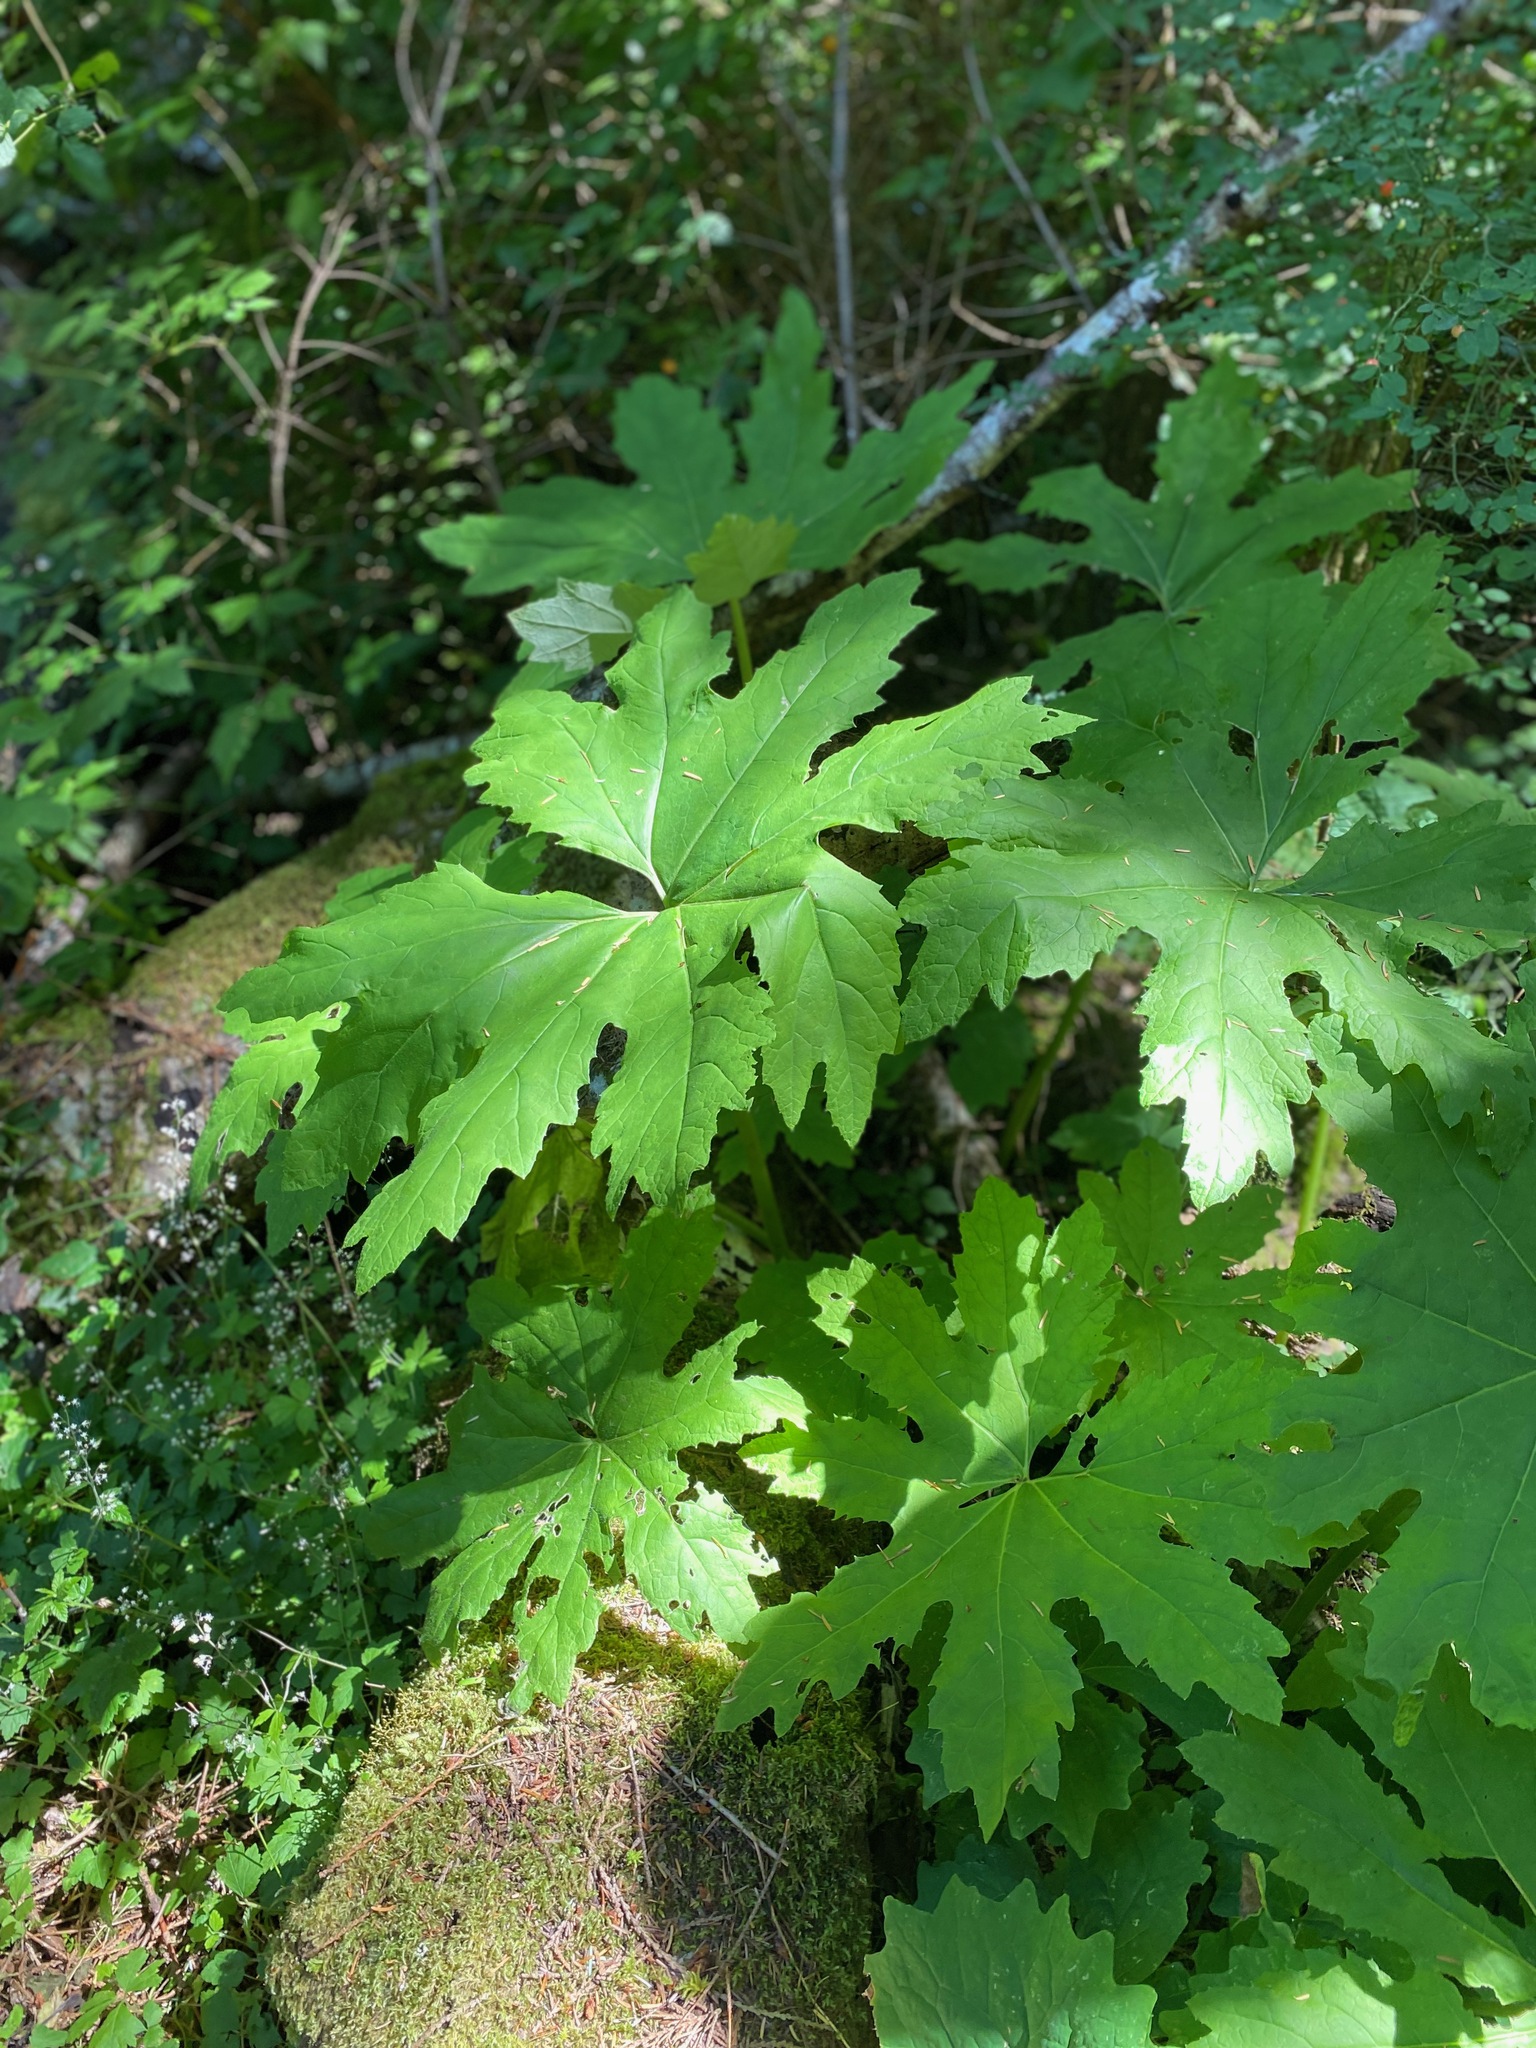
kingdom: Plantae
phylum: Tracheophyta
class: Magnoliopsida
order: Asterales
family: Asteraceae
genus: Petasites
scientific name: Petasites frigidus
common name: Arctic butterbur
